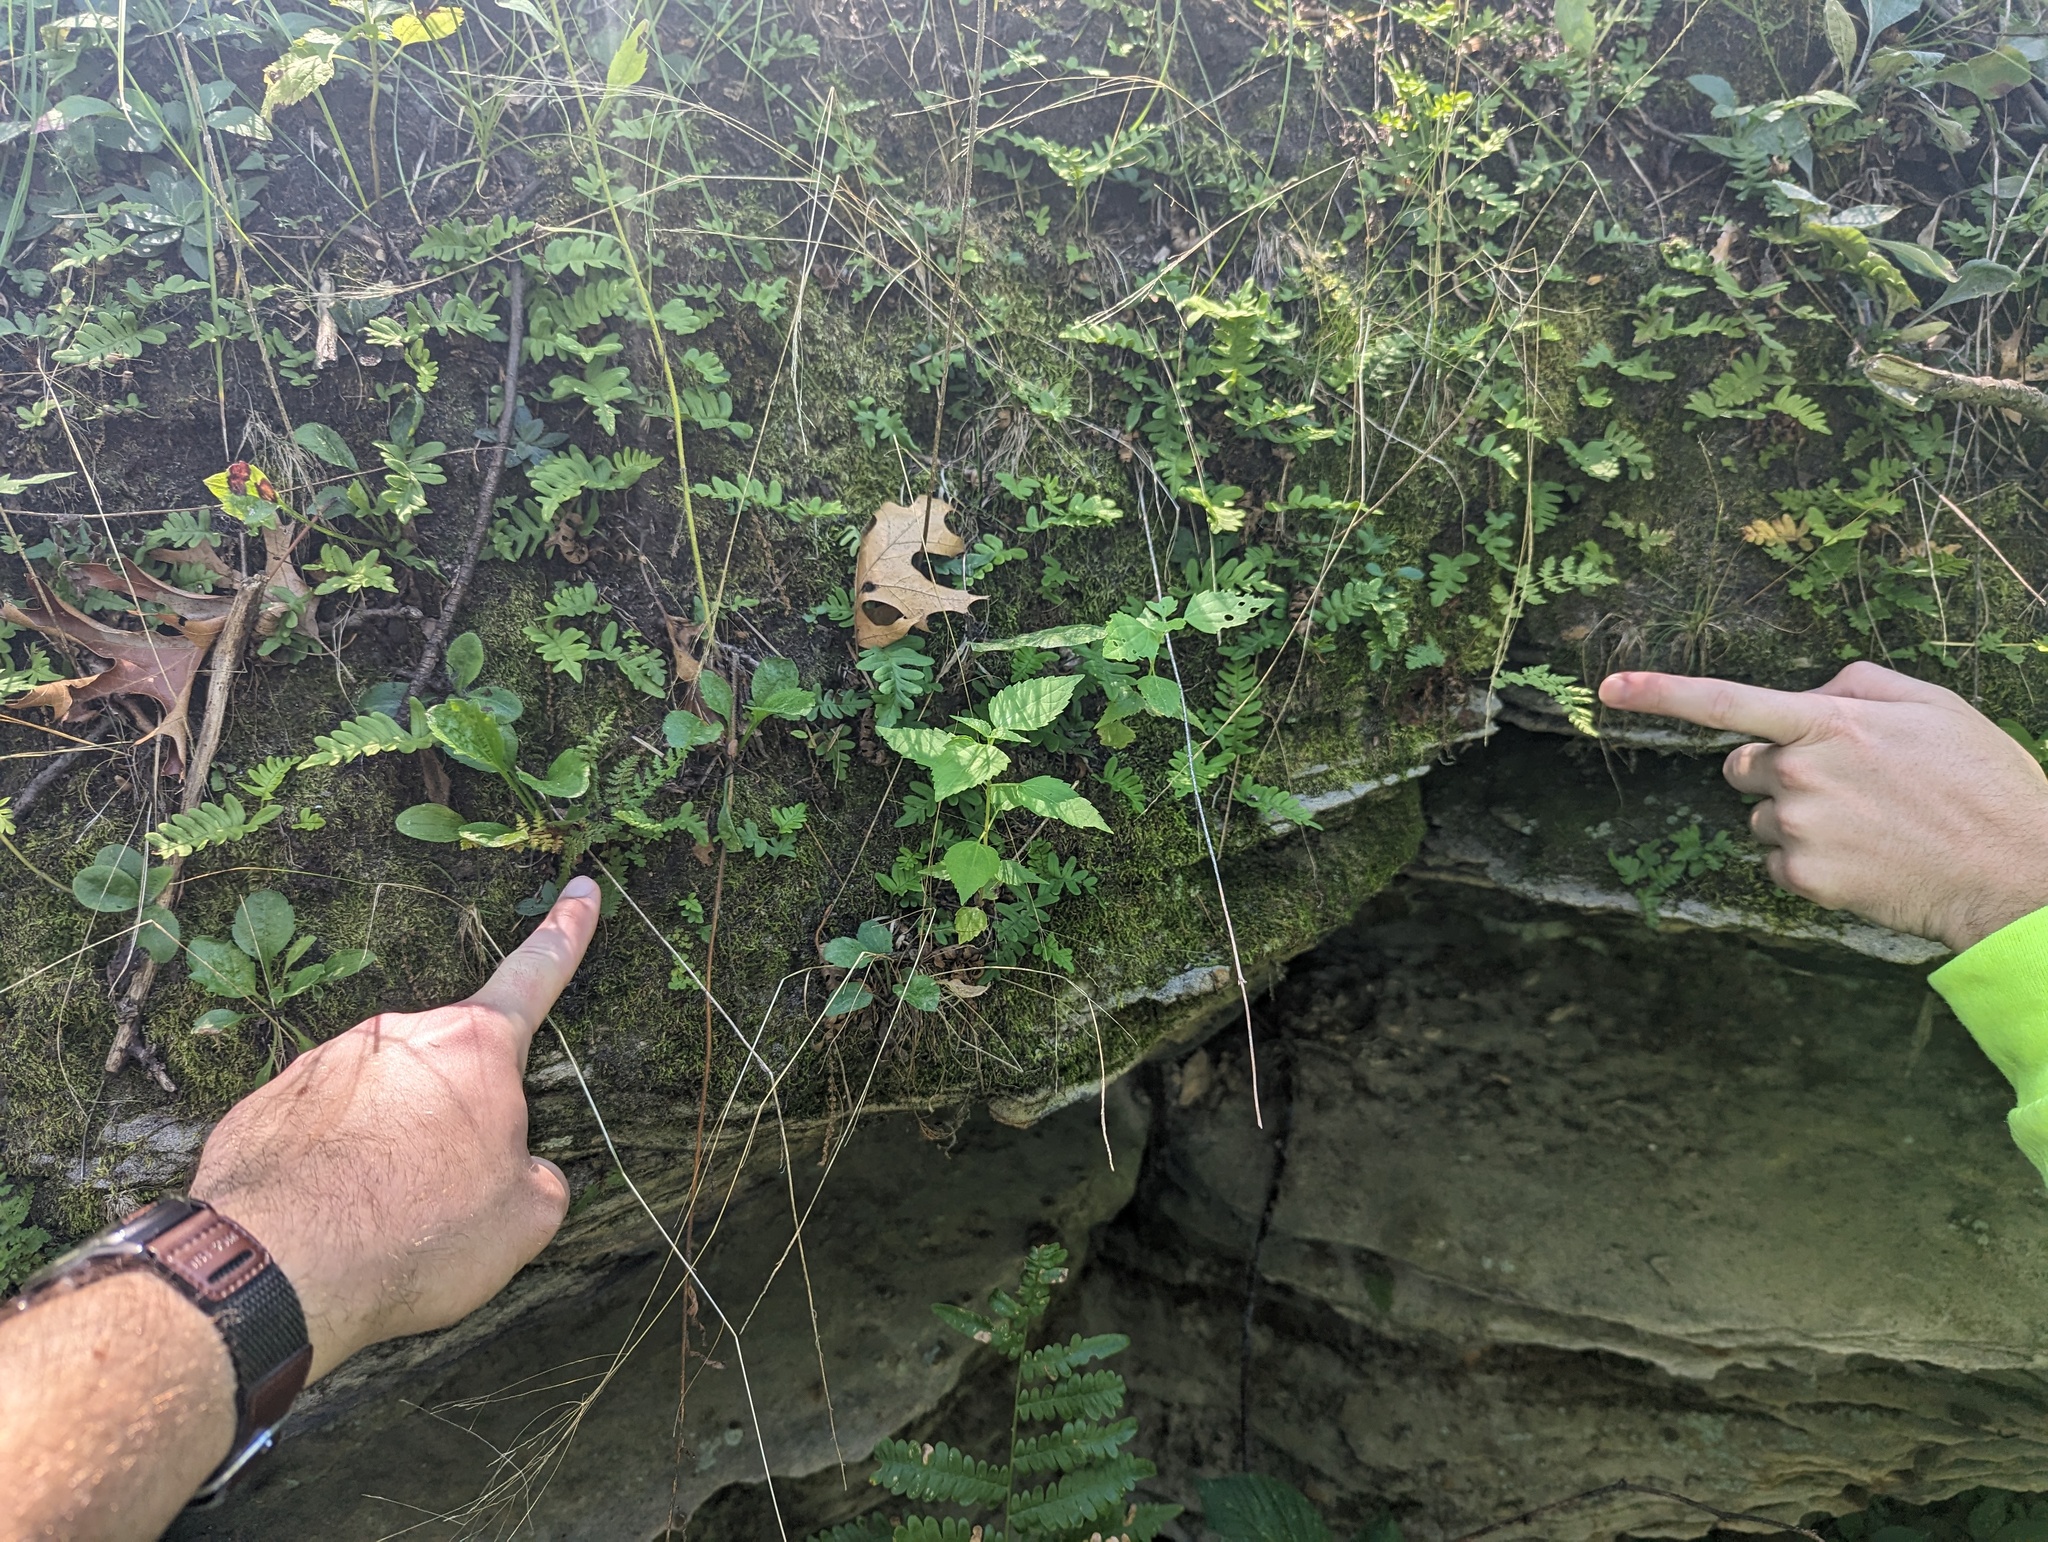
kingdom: Plantae
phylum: Tracheophyta
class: Polypodiopsida
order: Polypodiales
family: Woodsiaceae
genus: Woodsia
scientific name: Woodsia ilvensis
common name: Fragrant woodsia
